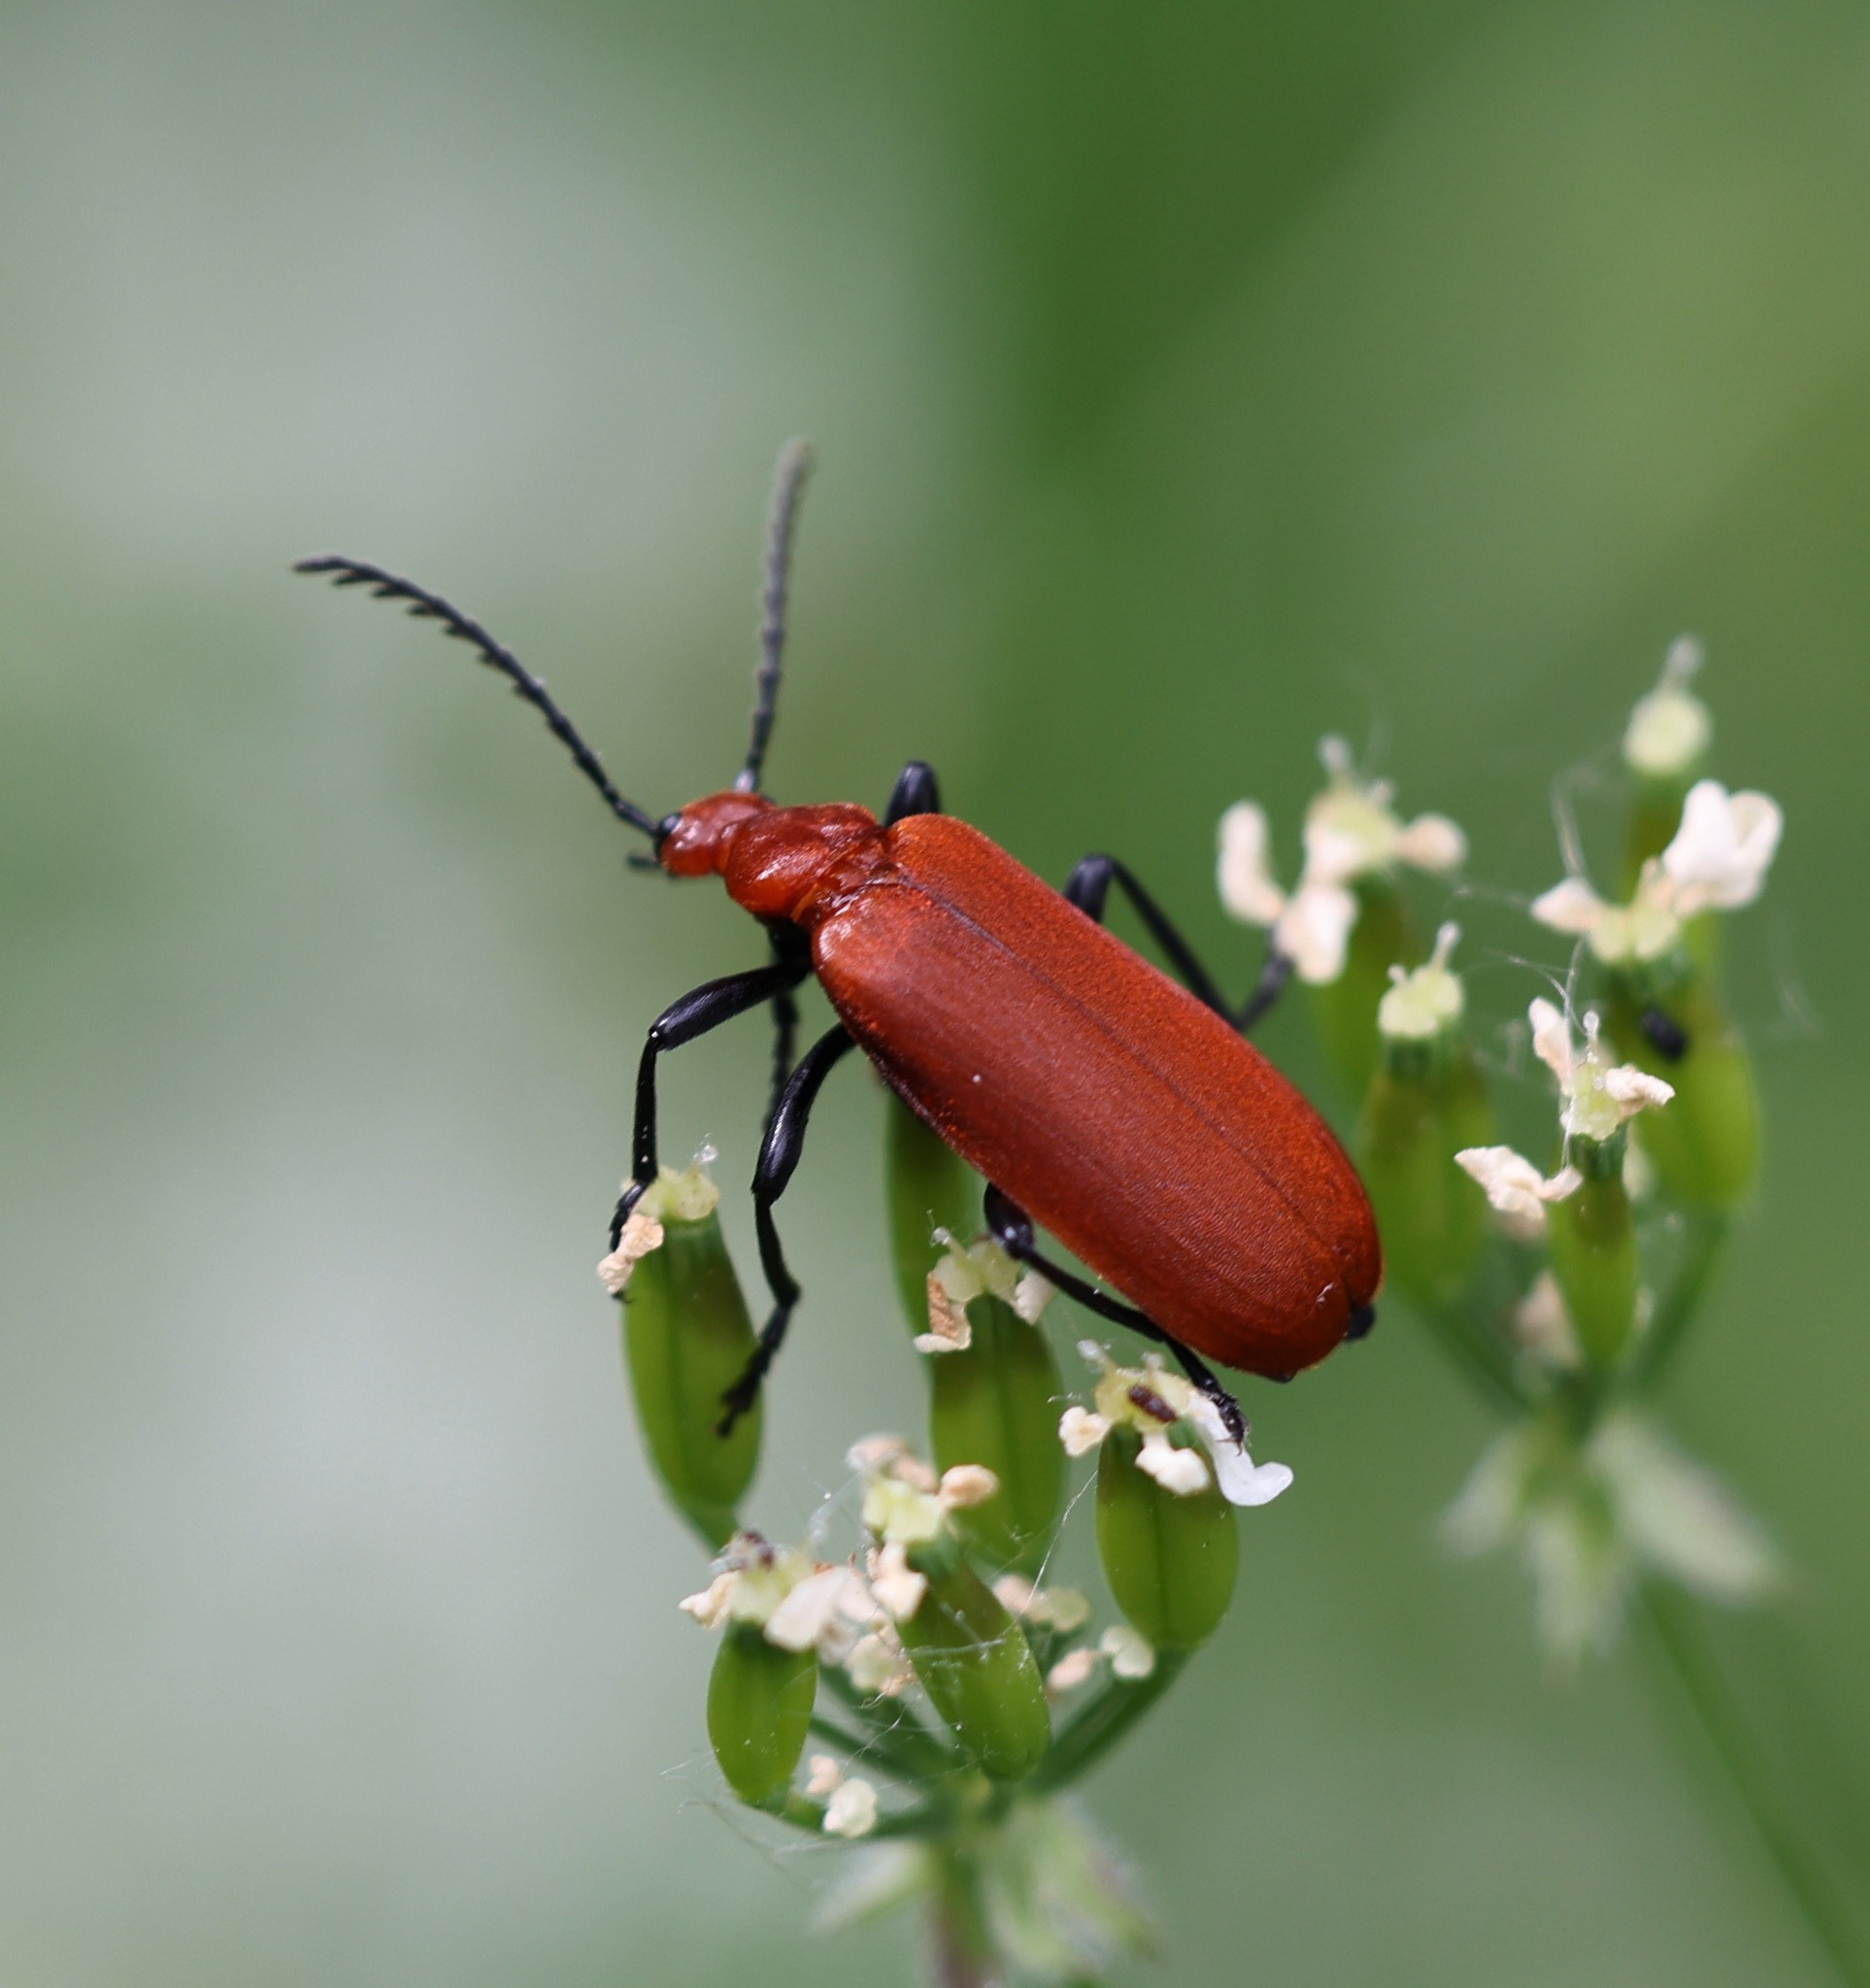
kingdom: Animalia
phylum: Arthropoda
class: Insecta
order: Coleoptera
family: Pyrochroidae
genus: Pyrochroa
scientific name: Pyrochroa serraticornis
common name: Red-headed cardinal beetle
